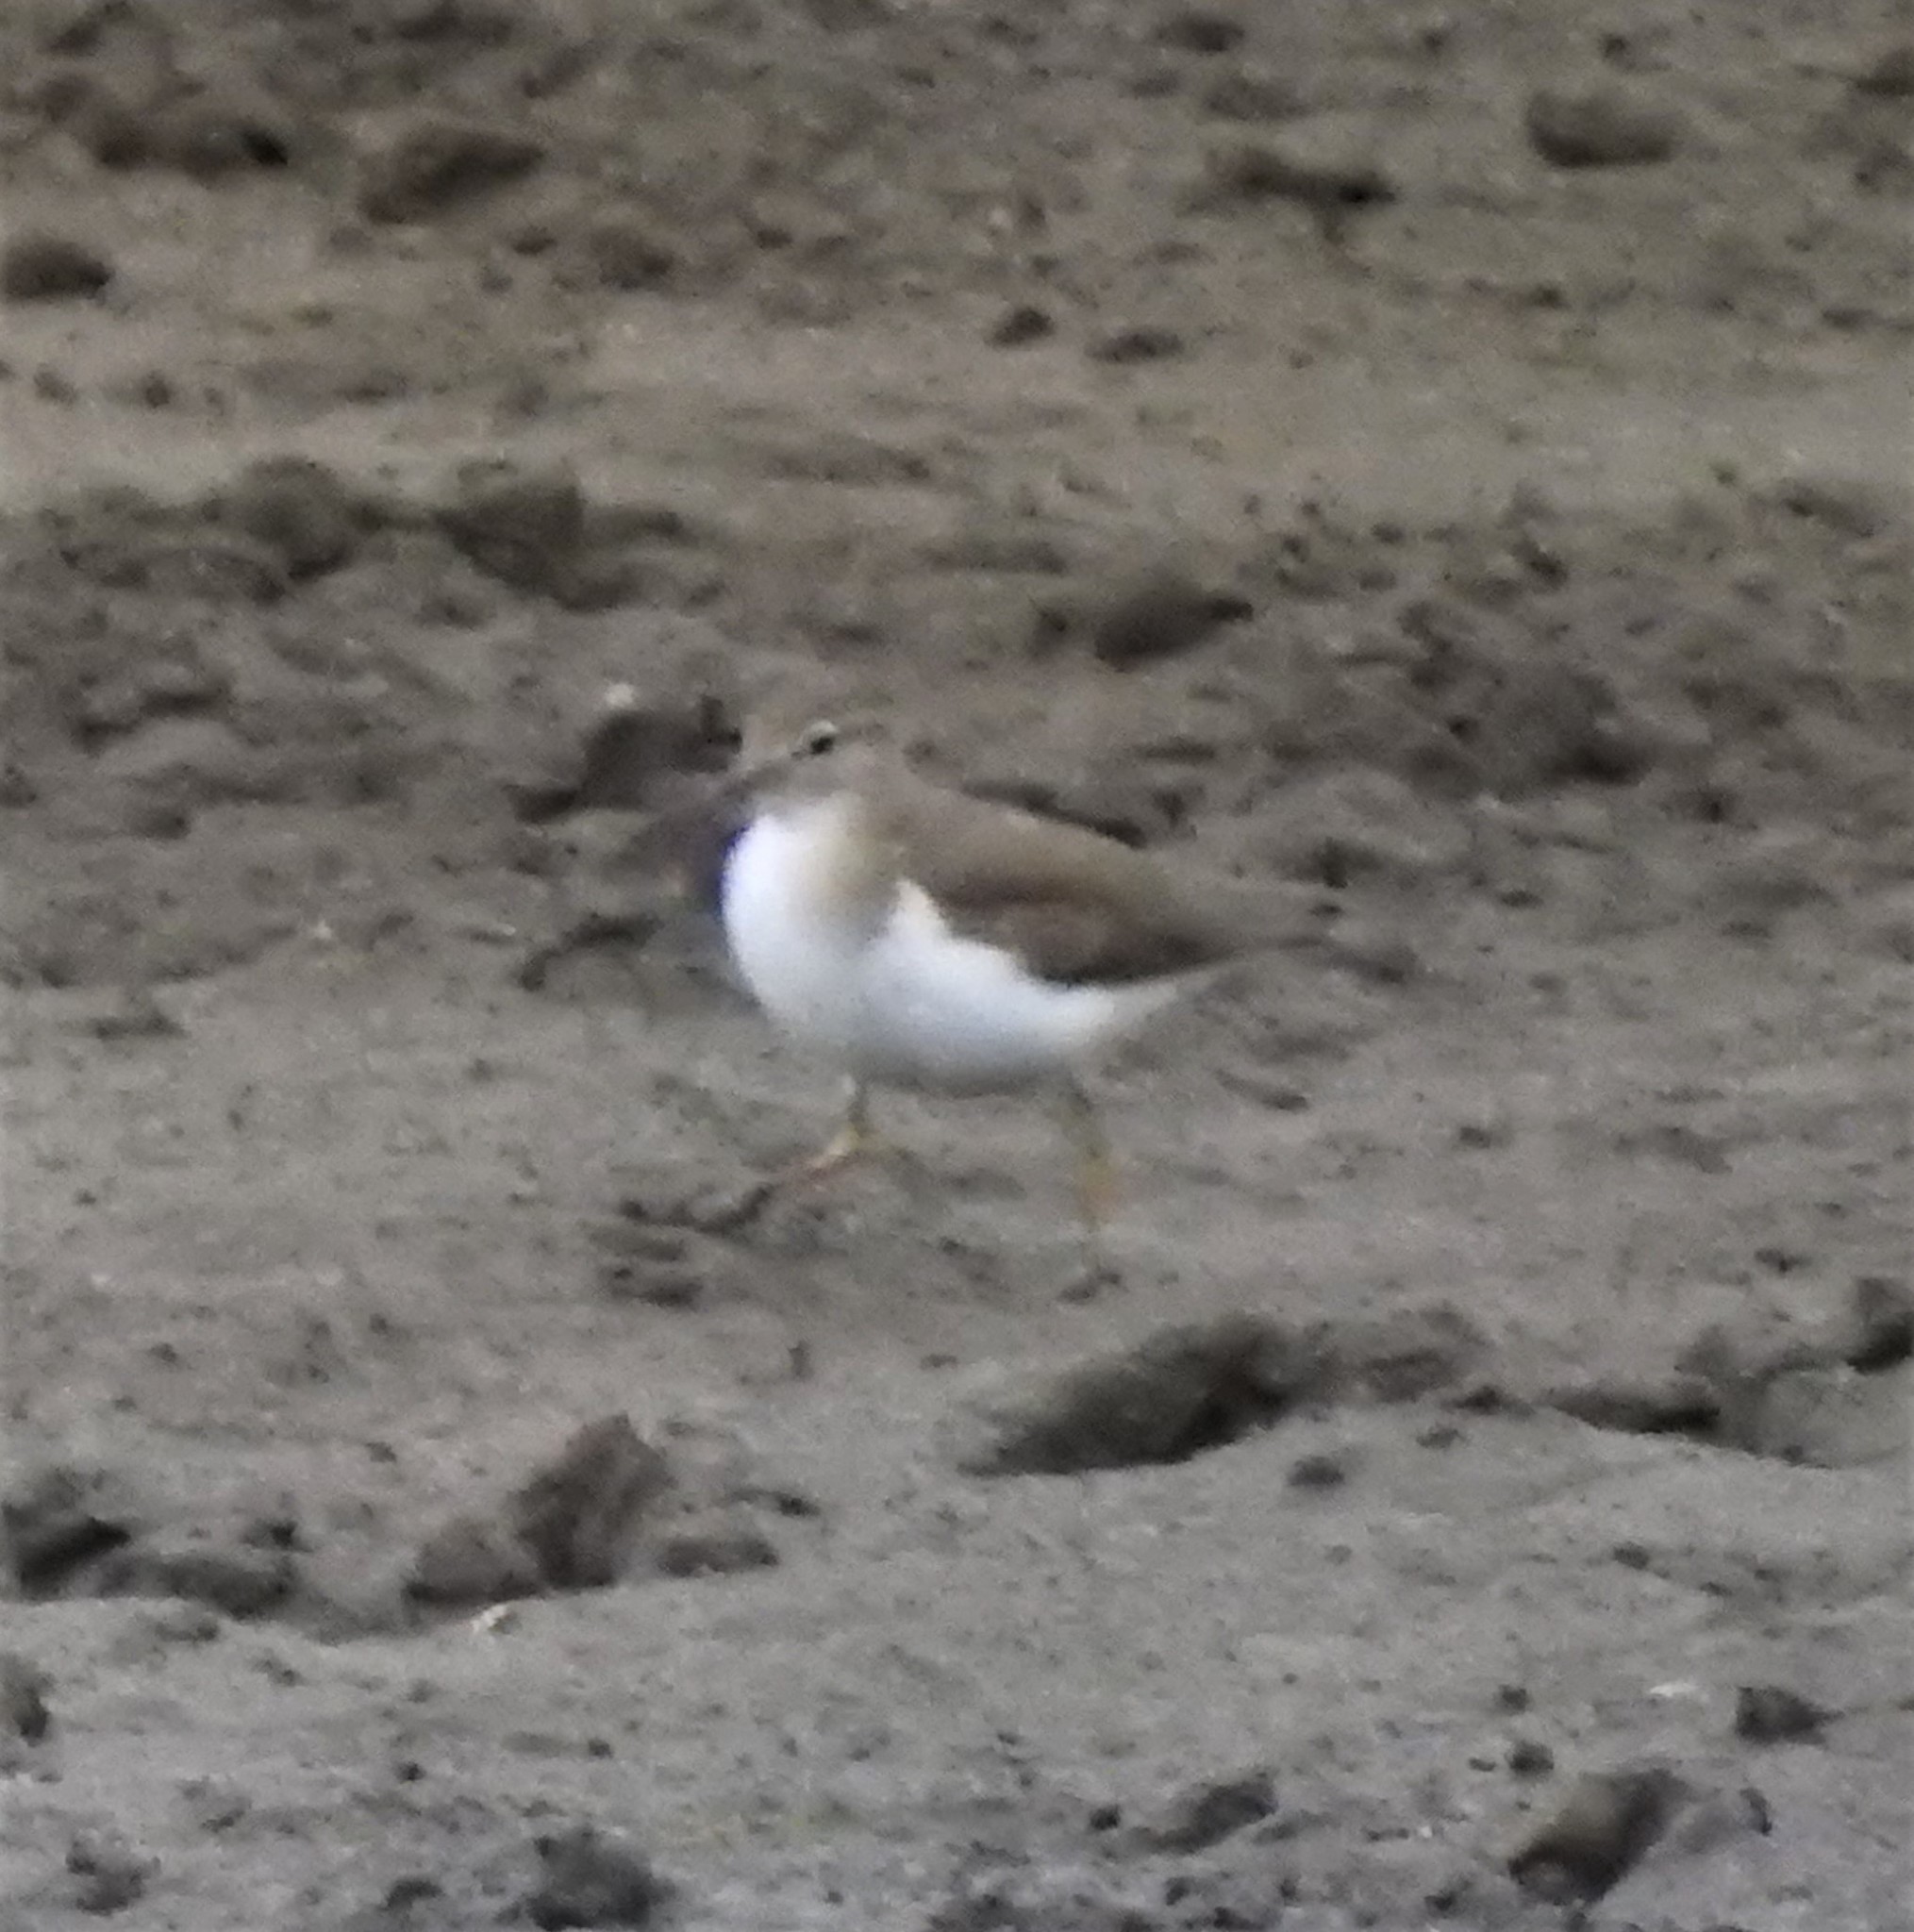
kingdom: Animalia
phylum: Chordata
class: Aves
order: Charadriiformes
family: Scolopacidae
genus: Actitis
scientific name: Actitis macularius
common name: Spotted sandpiper
